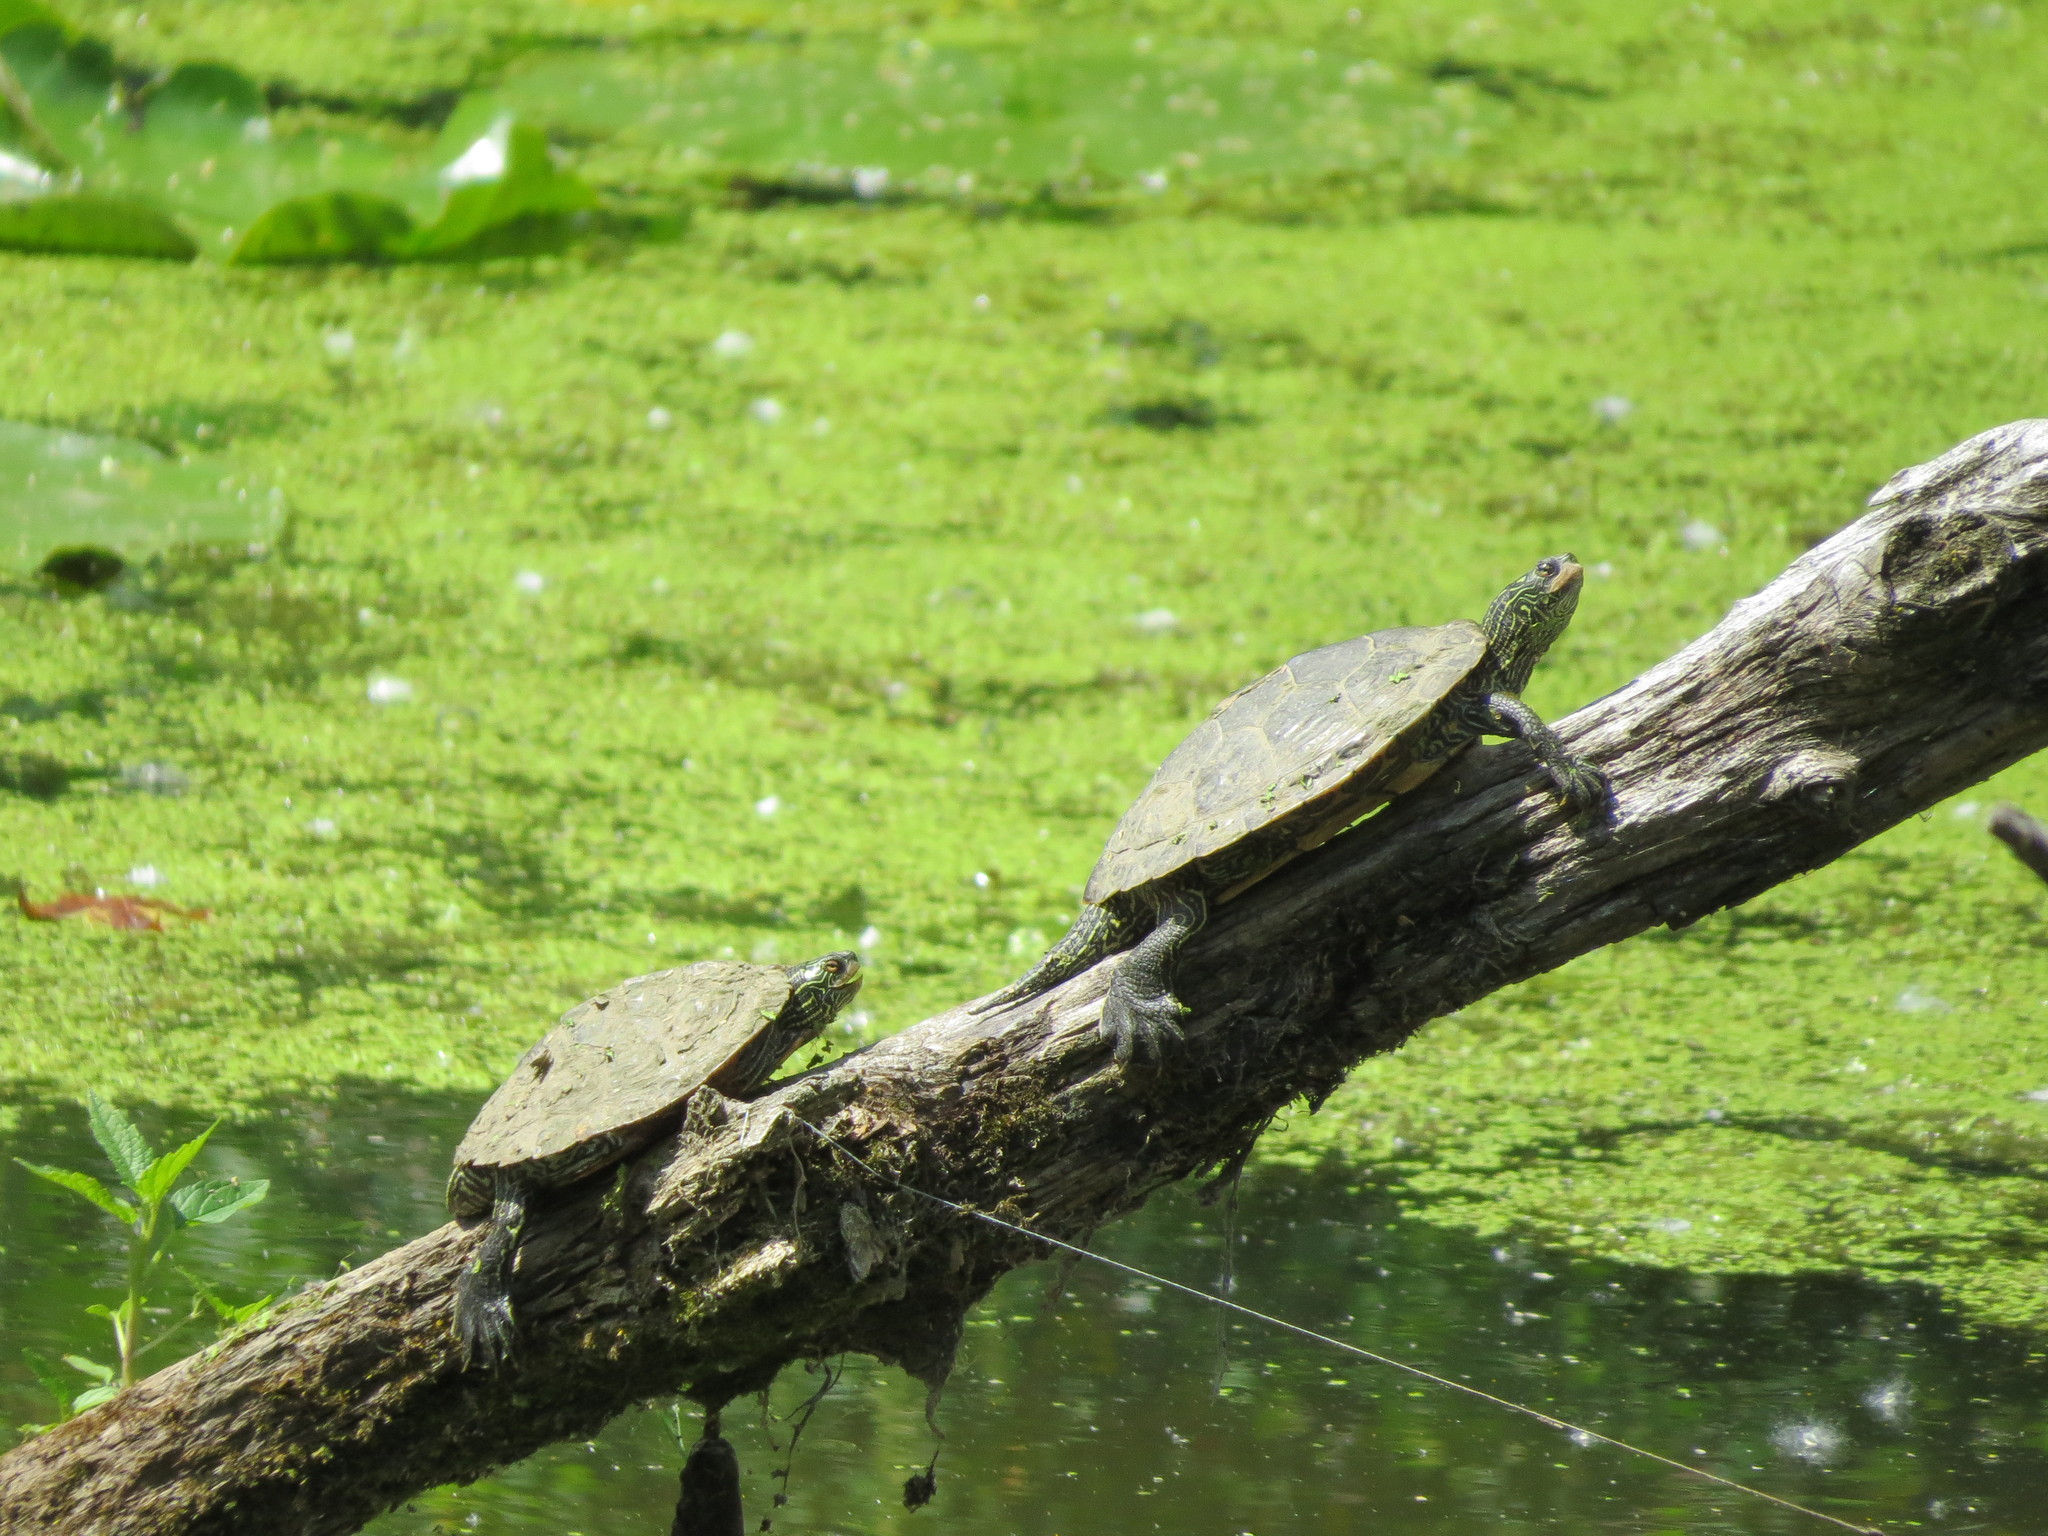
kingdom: Animalia
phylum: Chordata
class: Testudines
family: Emydidae
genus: Graptemys
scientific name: Graptemys geographica
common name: Common map turtle
